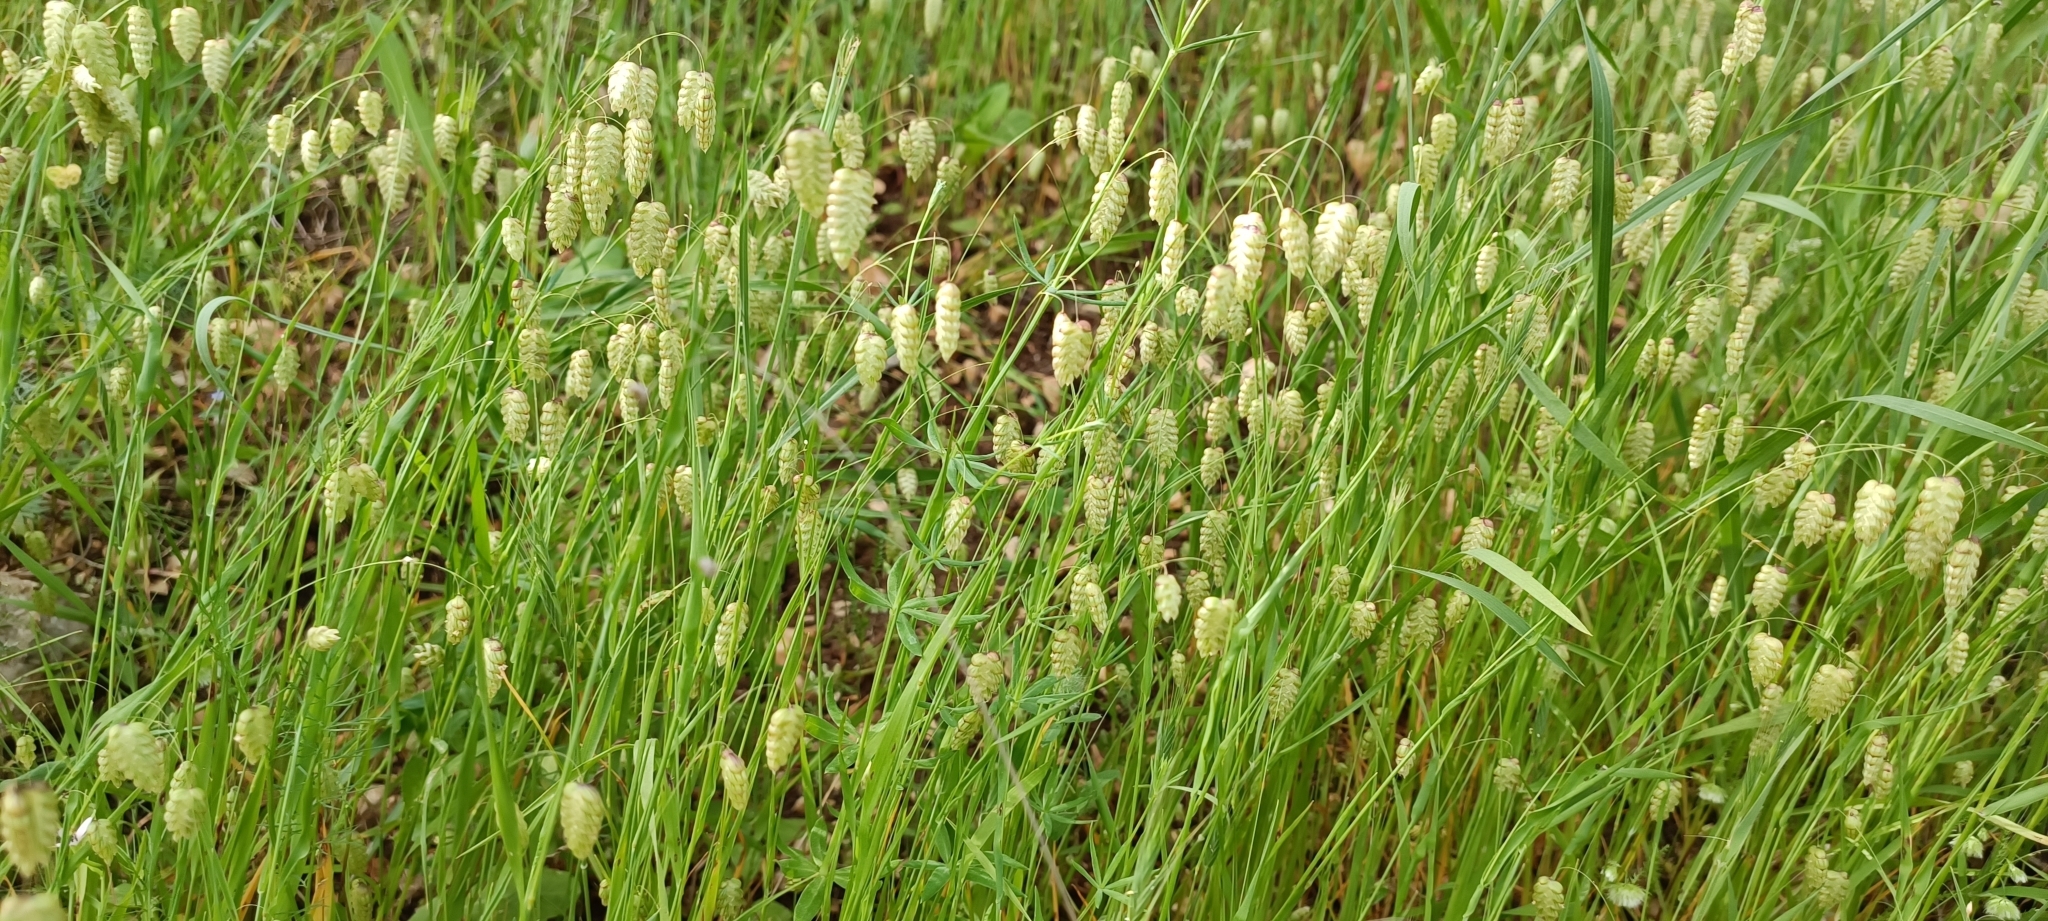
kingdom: Plantae
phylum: Tracheophyta
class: Liliopsida
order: Poales
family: Poaceae
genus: Briza
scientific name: Briza maxima
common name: Big quakinggrass
